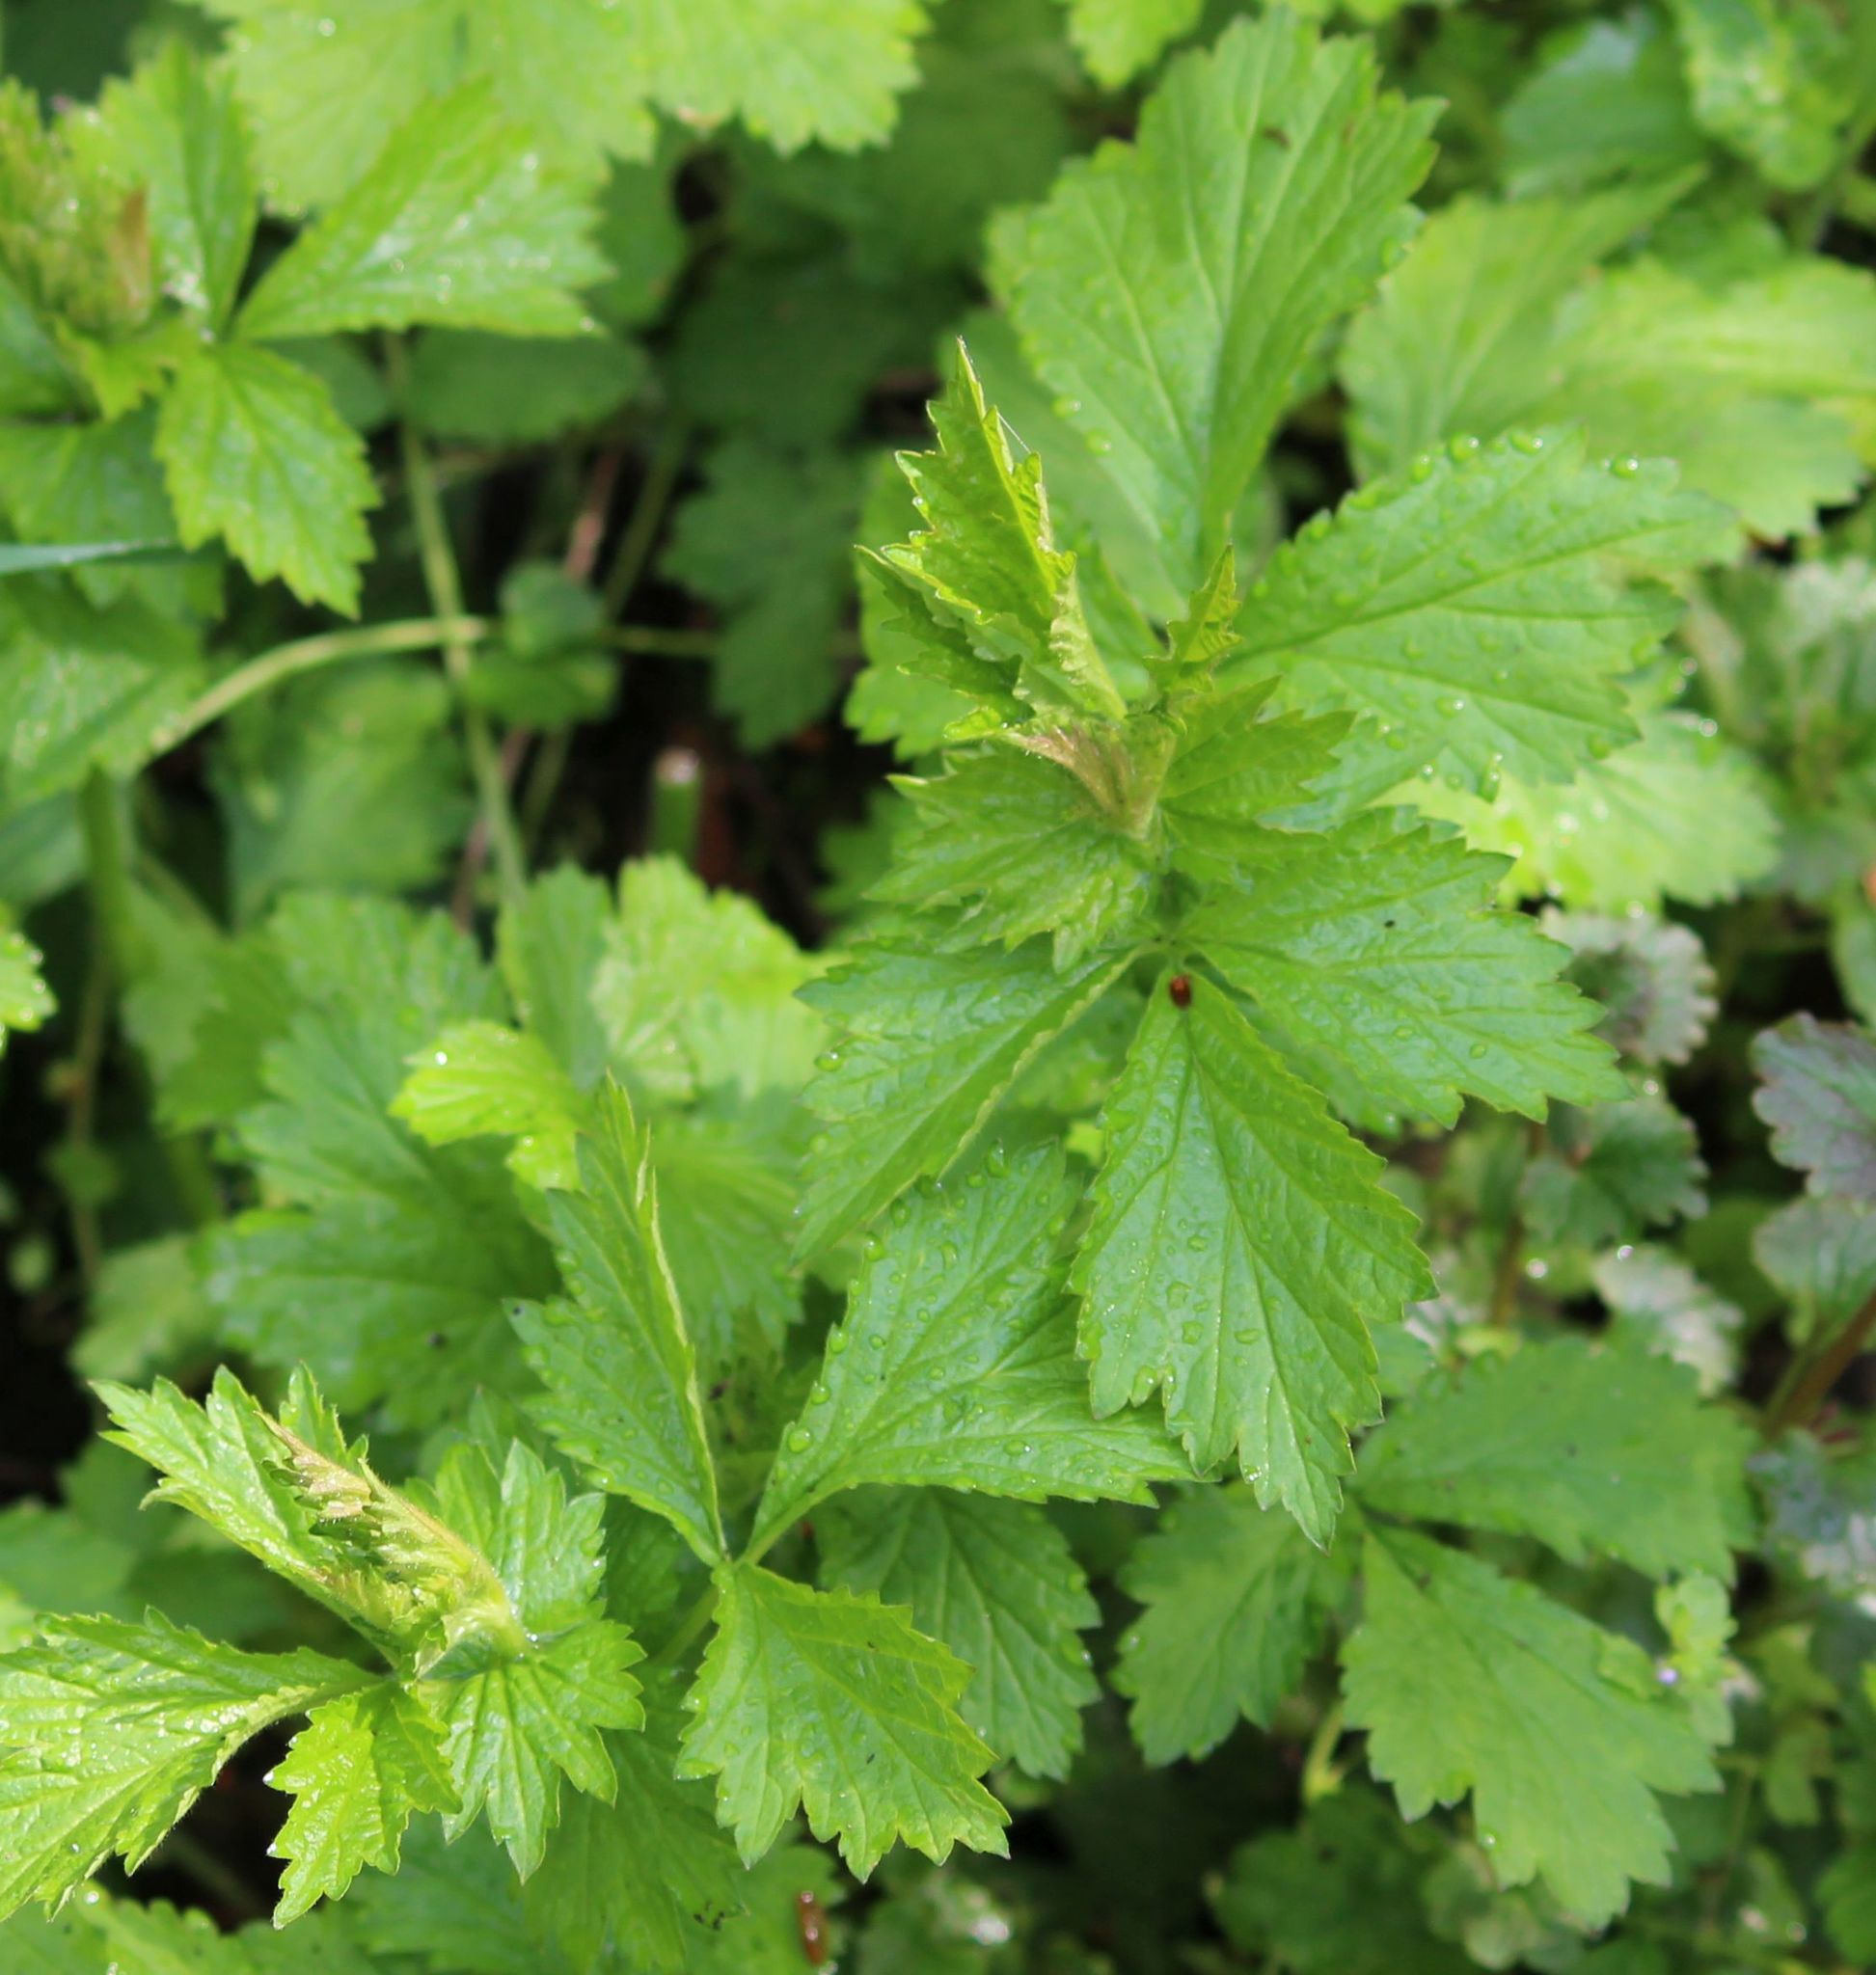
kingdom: Plantae
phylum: Tracheophyta
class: Magnoliopsida
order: Rosales
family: Rosaceae
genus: Geum
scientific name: Geum urbanum
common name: Wood avens
